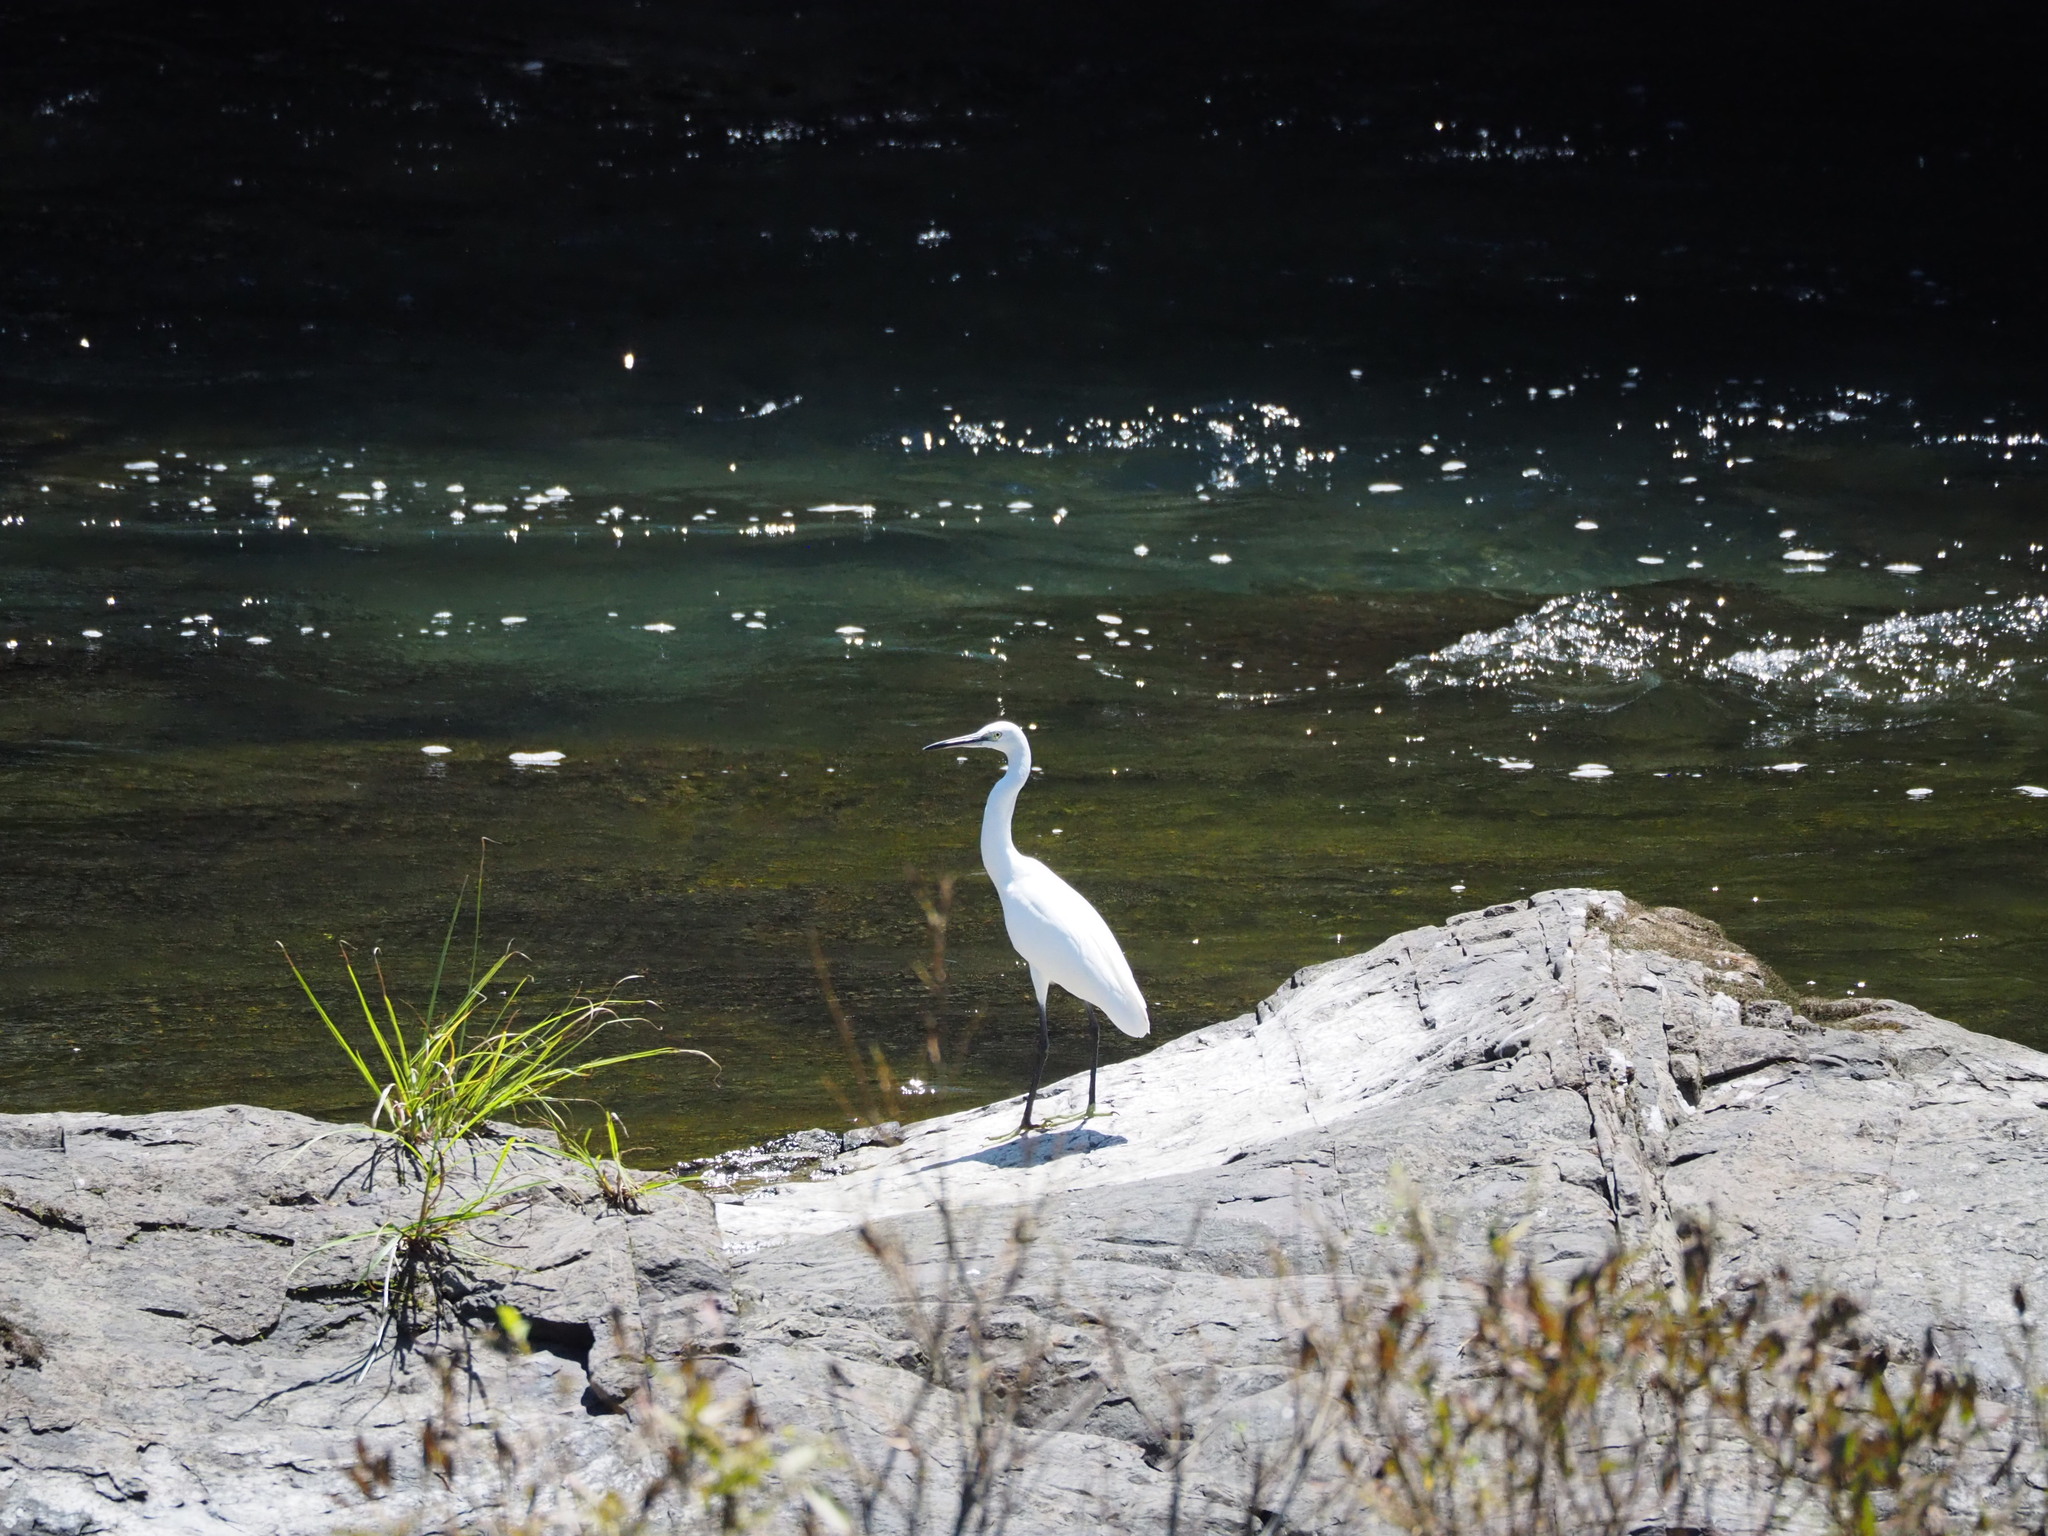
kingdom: Animalia
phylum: Chordata
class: Aves
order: Pelecaniformes
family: Ardeidae
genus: Egretta
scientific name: Egretta garzetta
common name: Little egret
